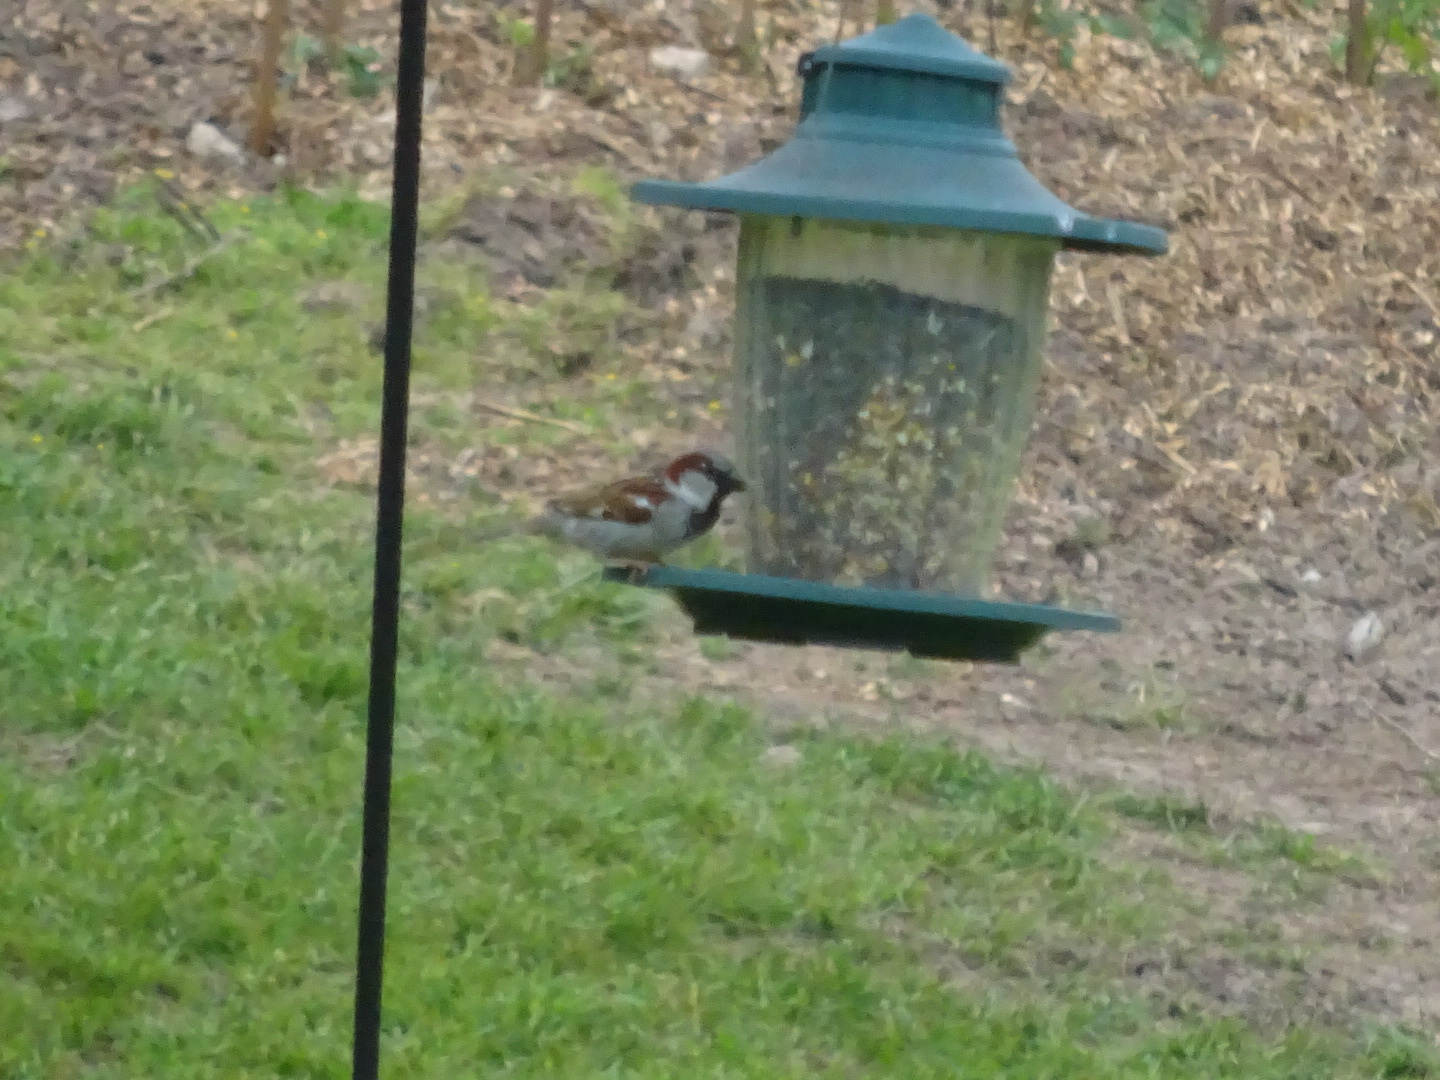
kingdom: Animalia
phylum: Chordata
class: Aves
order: Passeriformes
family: Passeridae
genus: Passer
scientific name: Passer domesticus
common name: House sparrow
